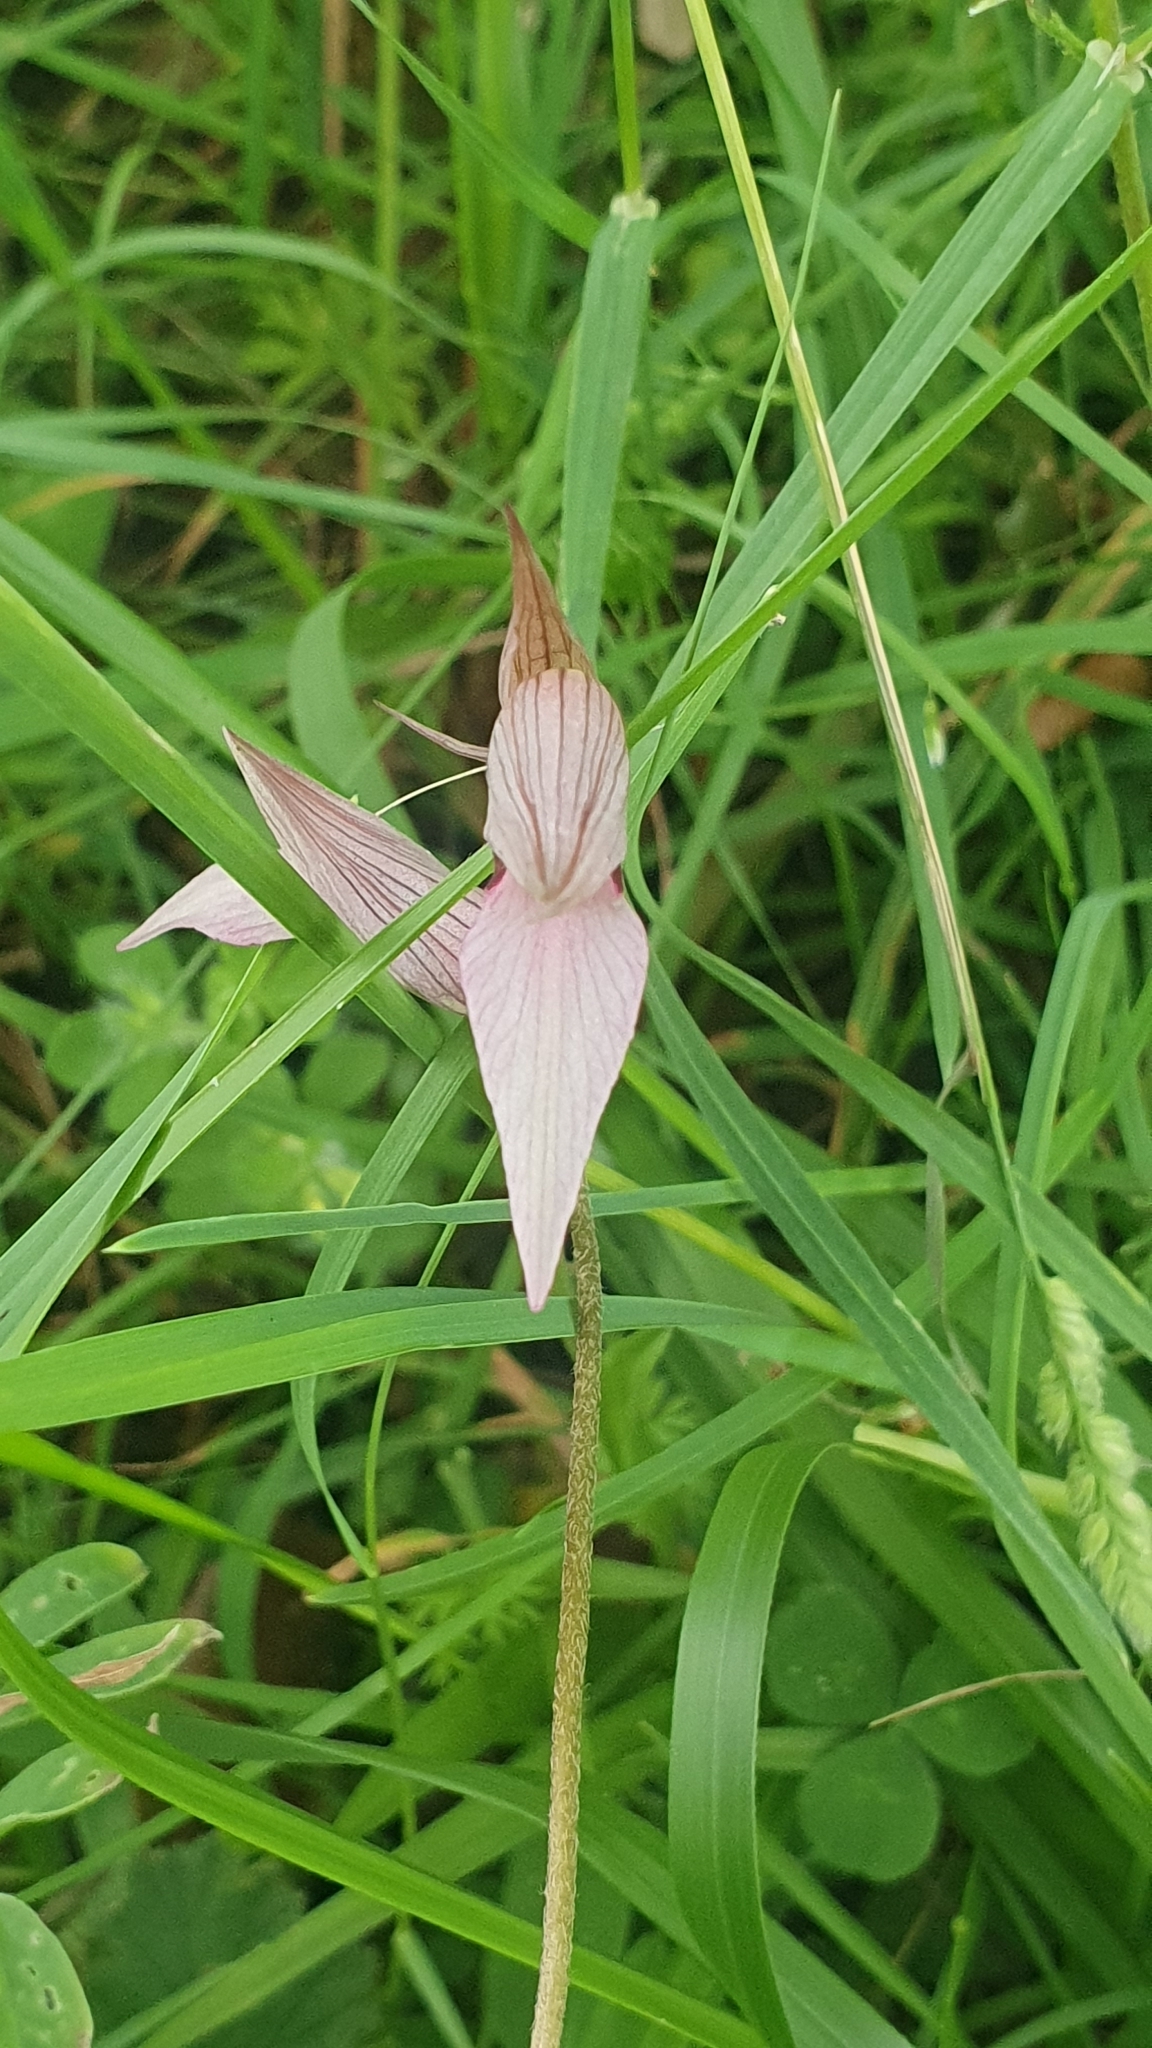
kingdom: Plantae
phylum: Tracheophyta
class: Liliopsida
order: Asparagales
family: Orchidaceae
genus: Serapias
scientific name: Serapias lingua
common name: Tongue-orchid
